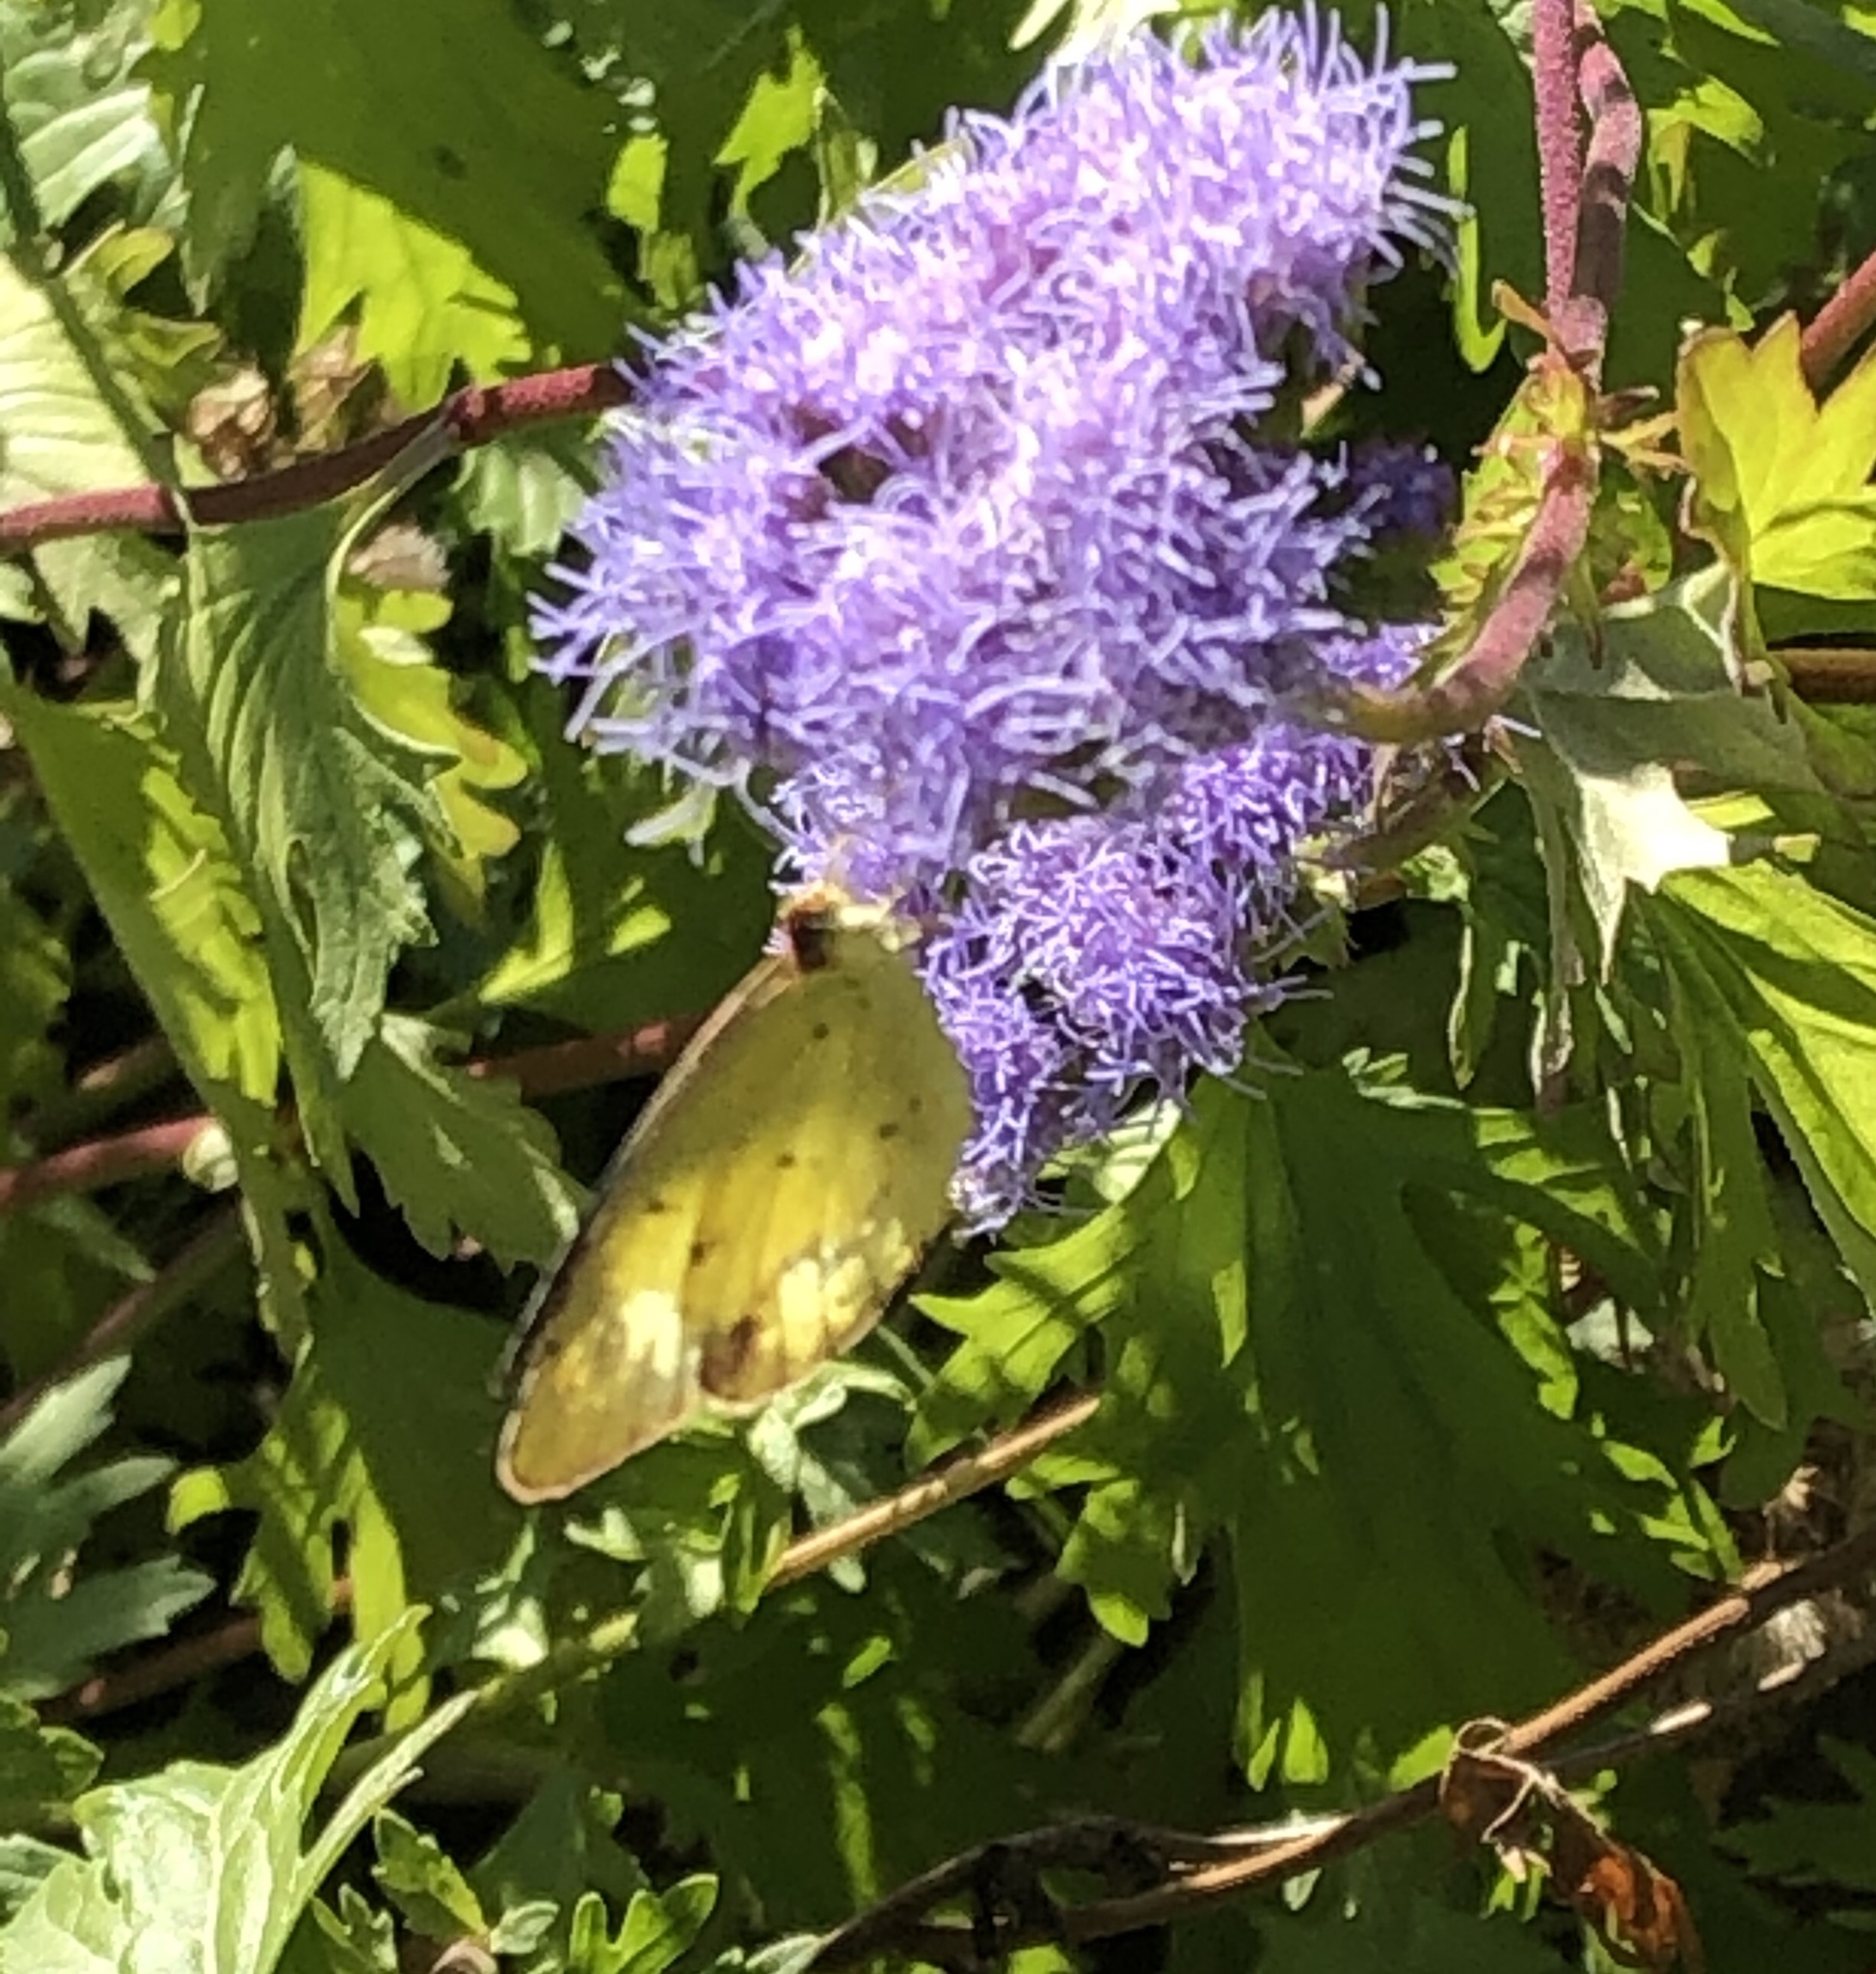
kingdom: Animalia
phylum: Arthropoda
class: Insecta
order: Lepidoptera
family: Pieridae
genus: Pyrisitia
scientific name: Pyrisitia lisa
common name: Little yellow
